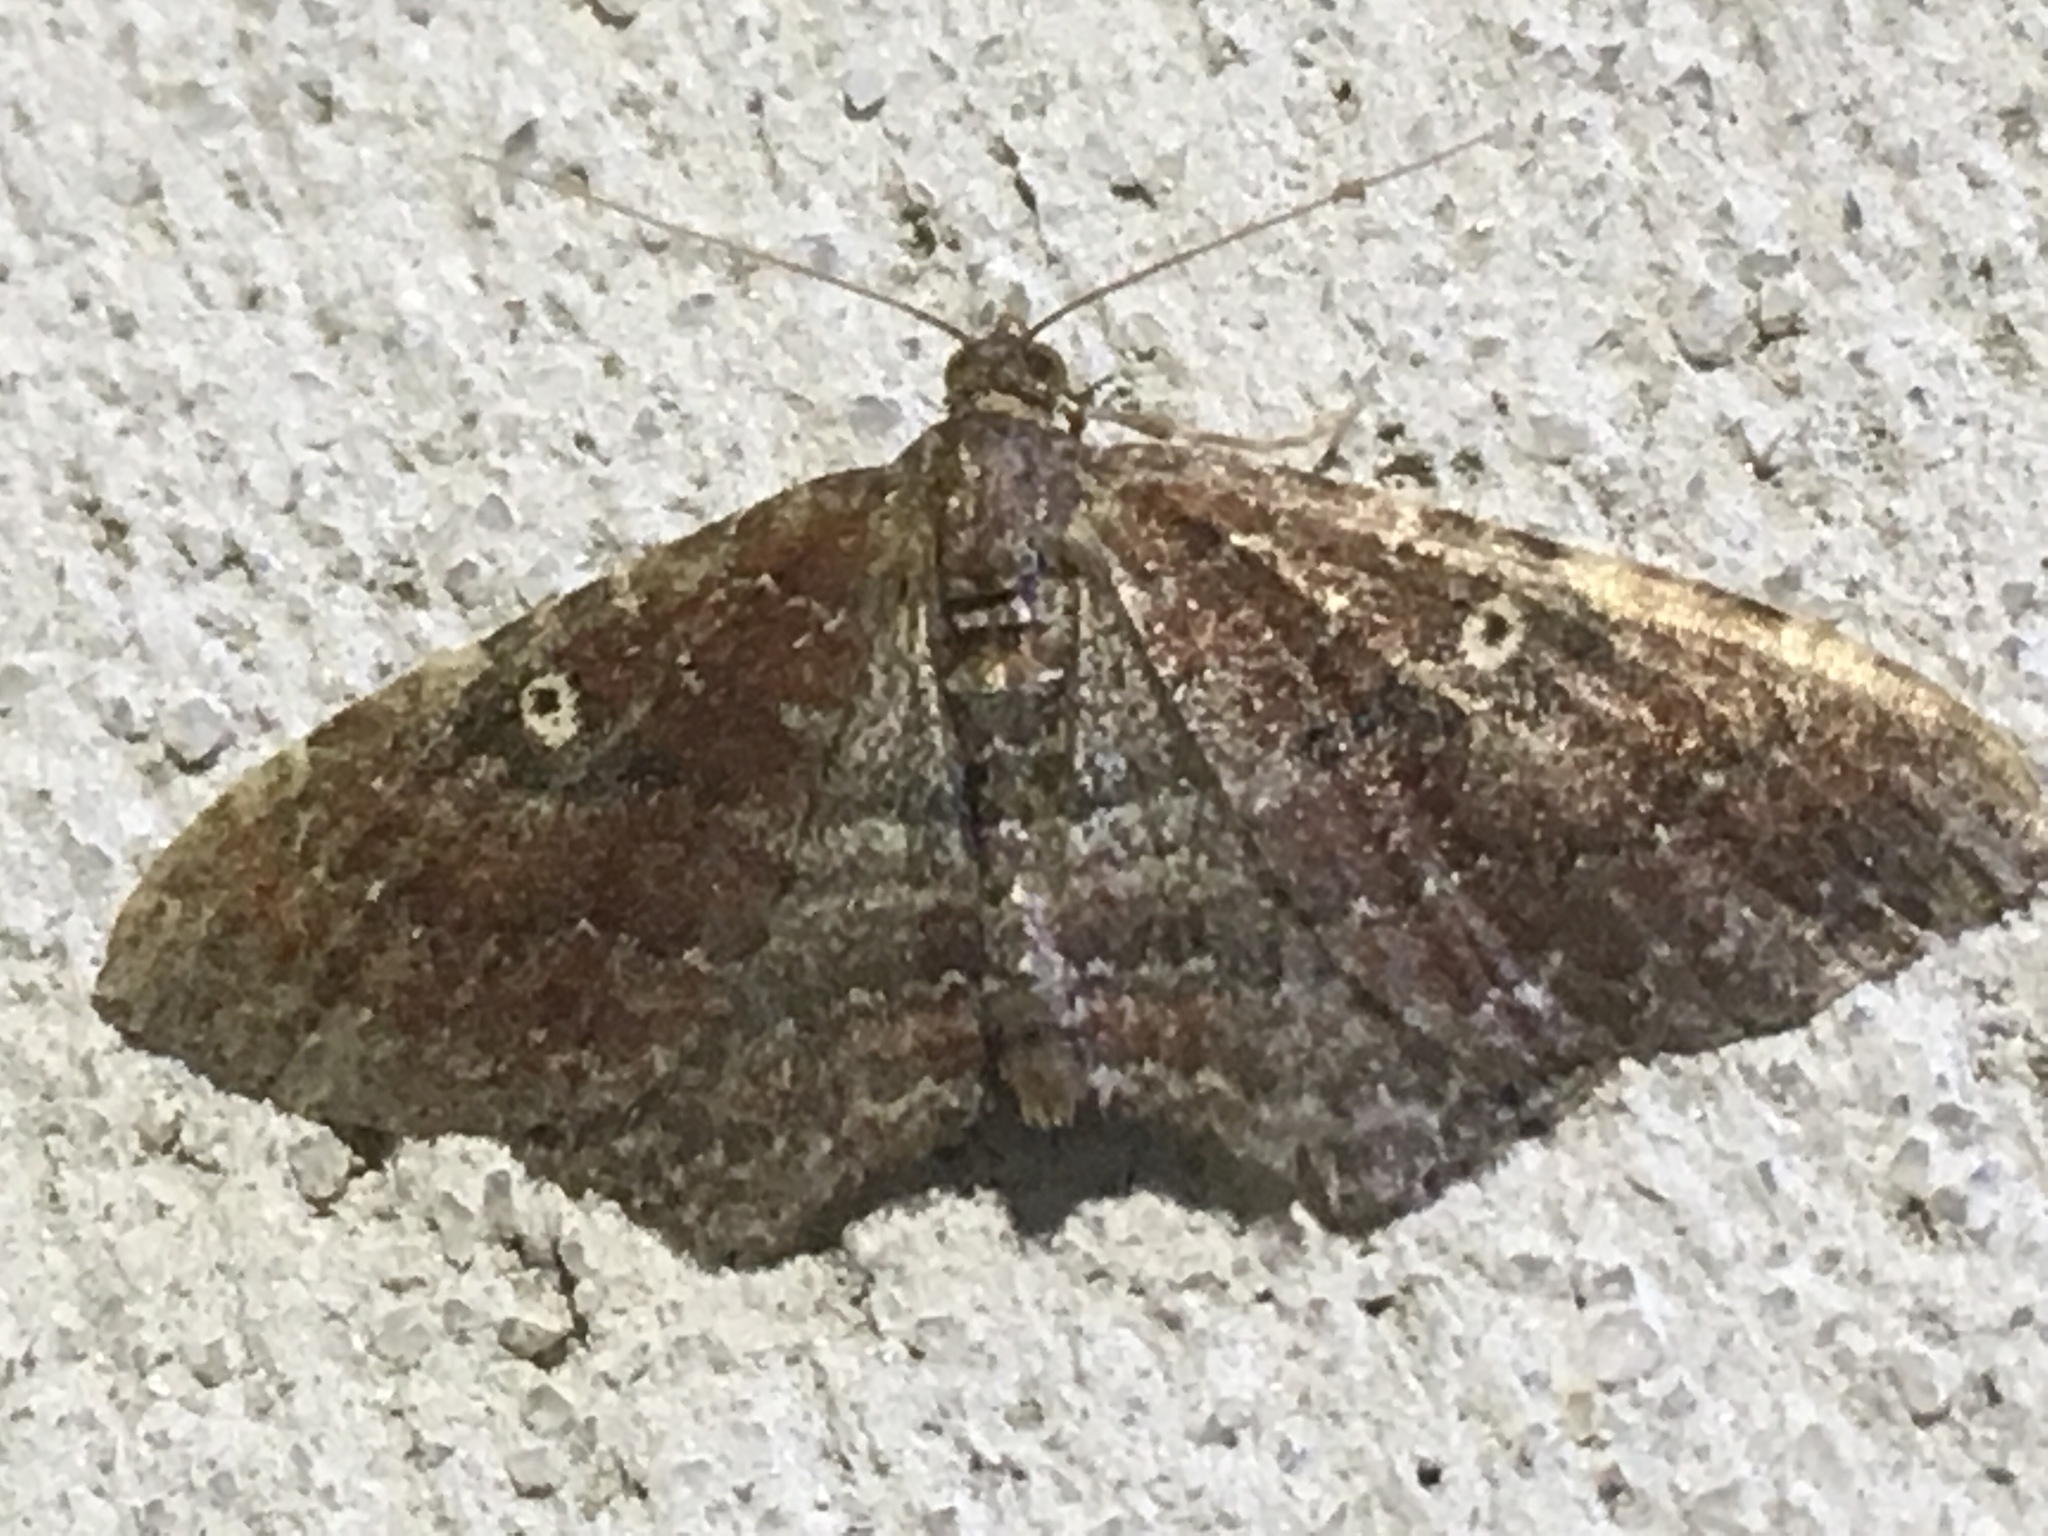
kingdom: Animalia
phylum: Arthropoda
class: Insecta
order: Lepidoptera
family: Geometridae
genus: Orthonama
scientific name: Orthonama obstipata
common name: The gem
